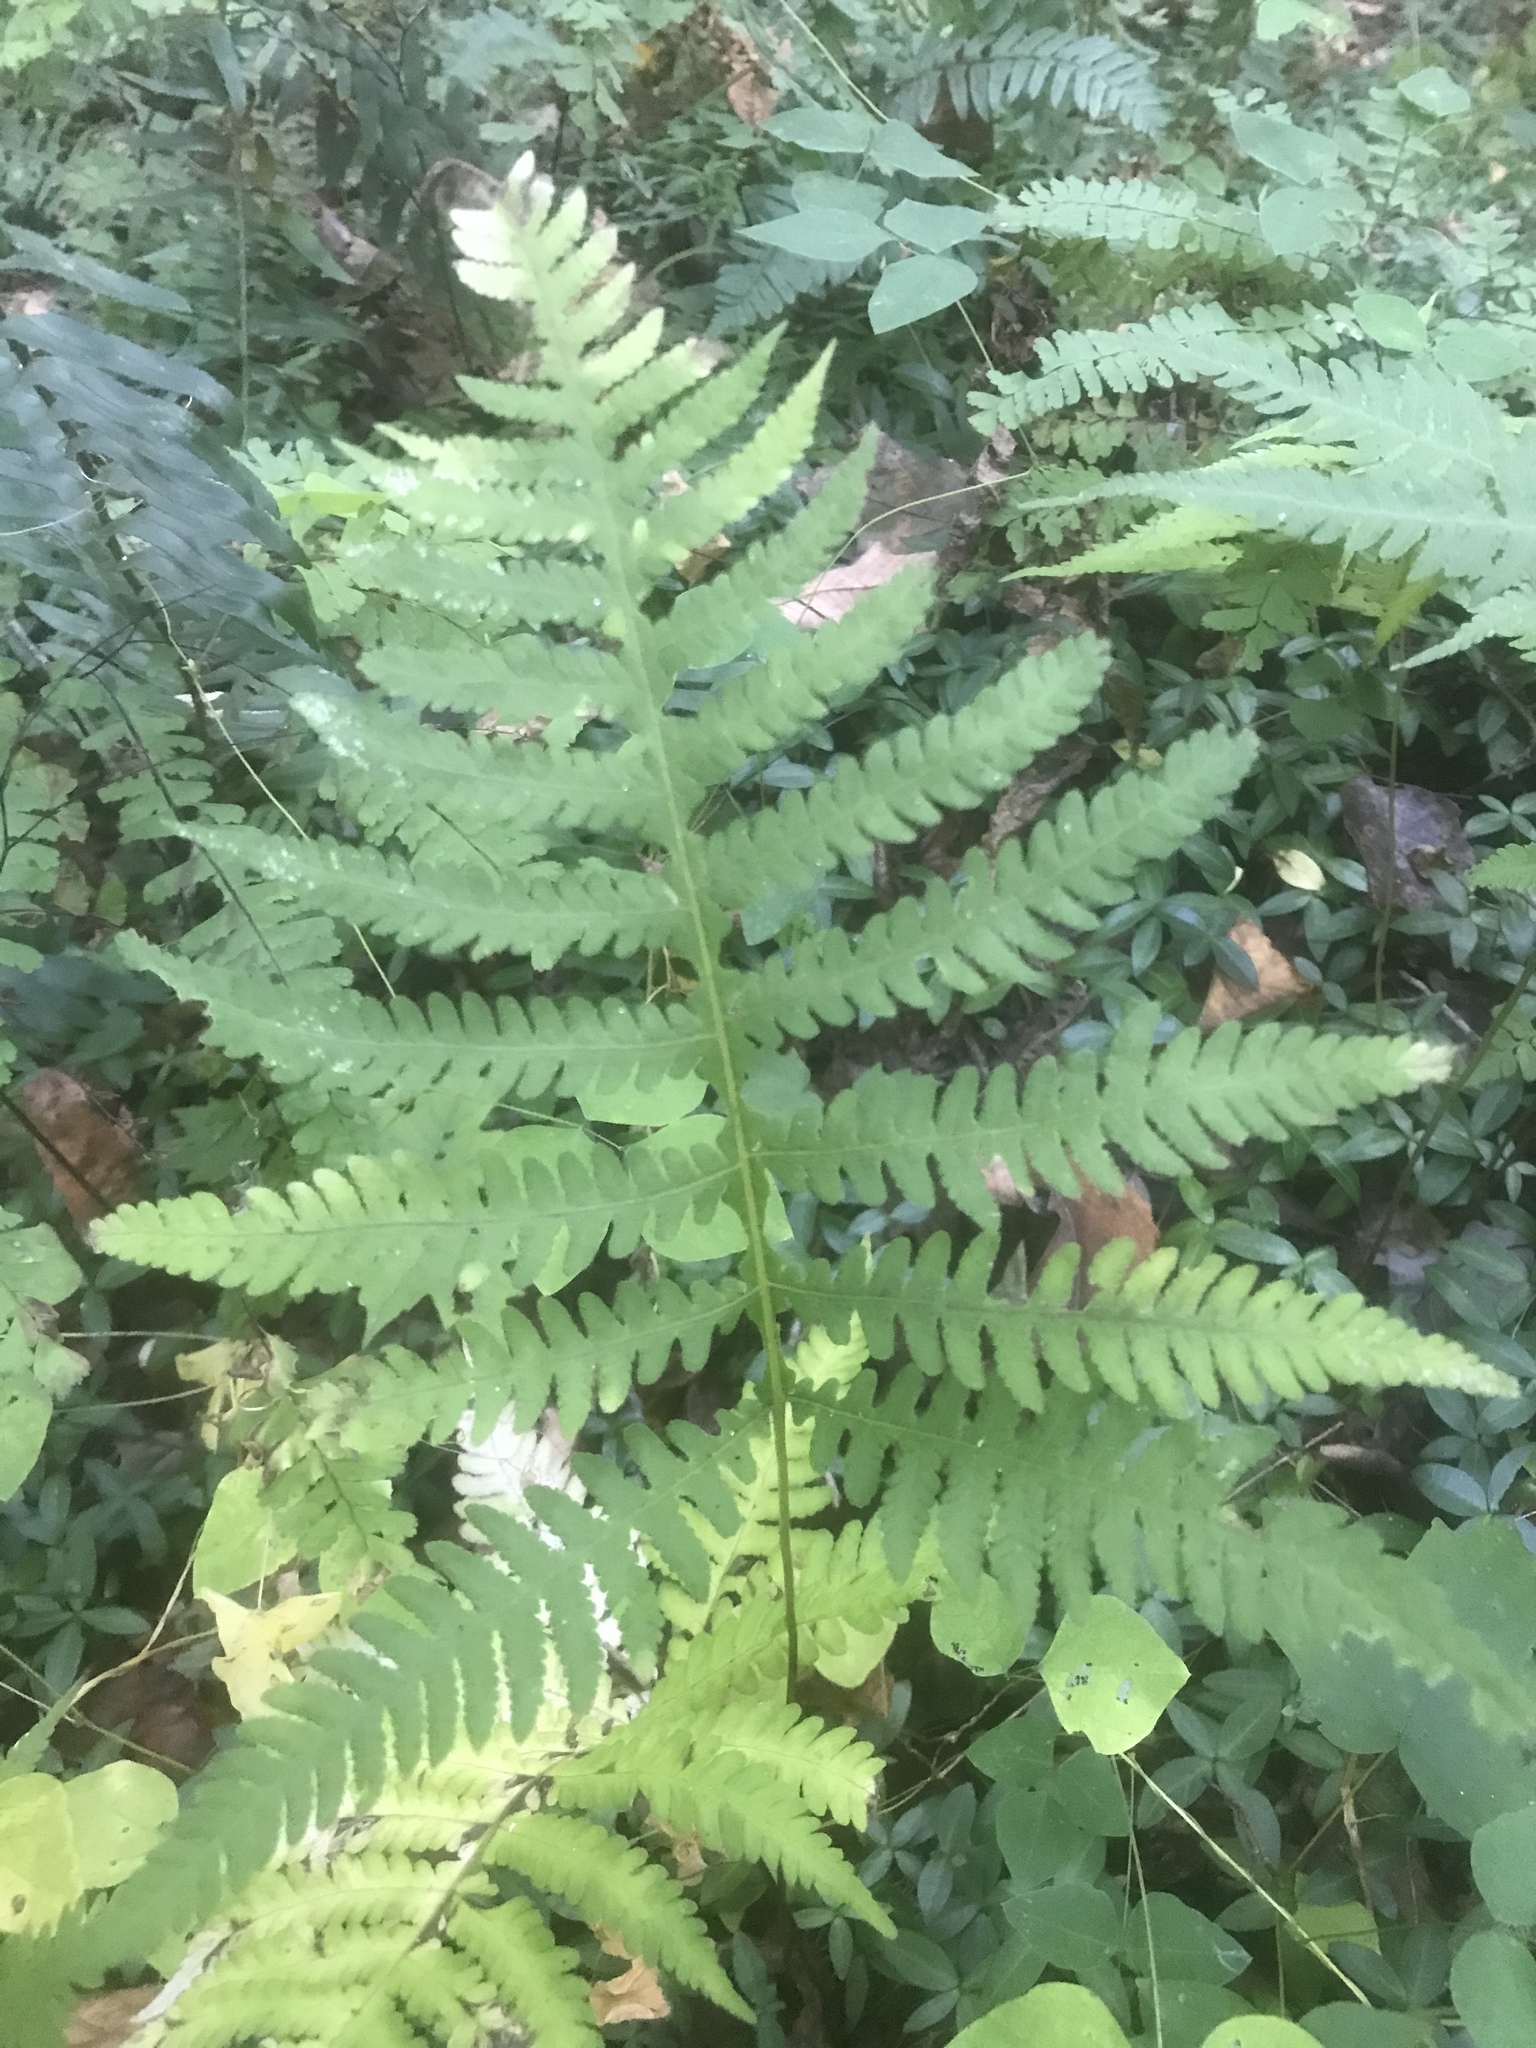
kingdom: Plantae
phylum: Tracheophyta
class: Polypodiopsida
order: Polypodiales
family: Thelypteridaceae
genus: Phegopteris
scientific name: Phegopteris hexagonoptera
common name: Broad beech fern
